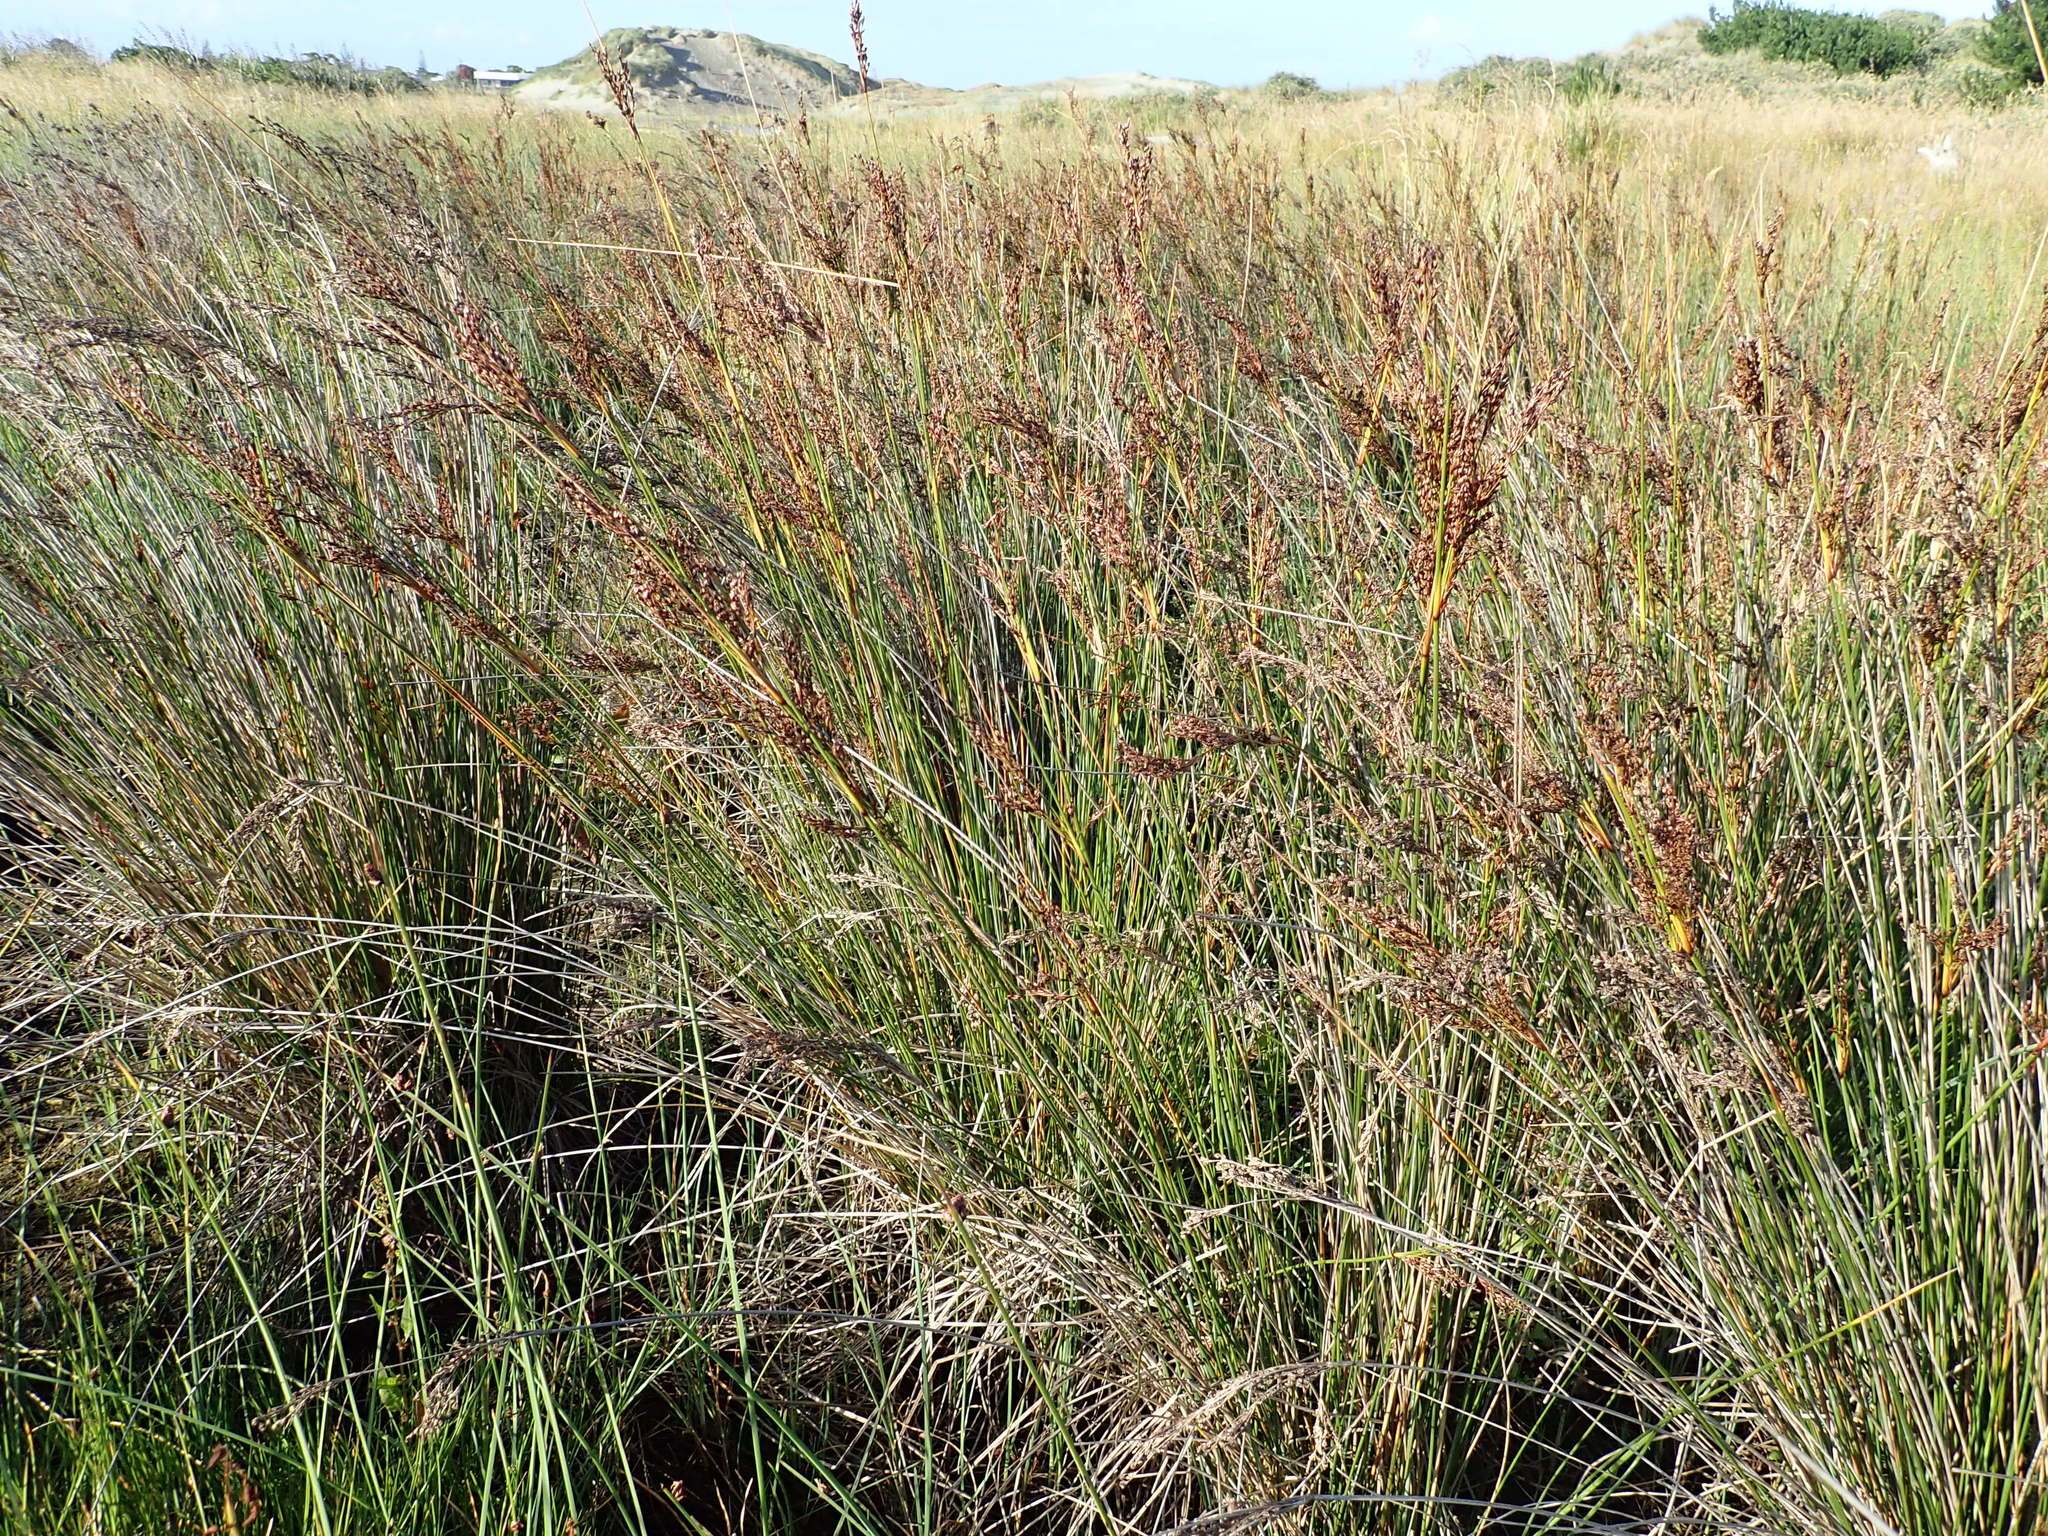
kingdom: Plantae
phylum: Tracheophyta
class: Liliopsida
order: Poales
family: Juncaceae
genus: Juncus
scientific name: Juncus kraussii
